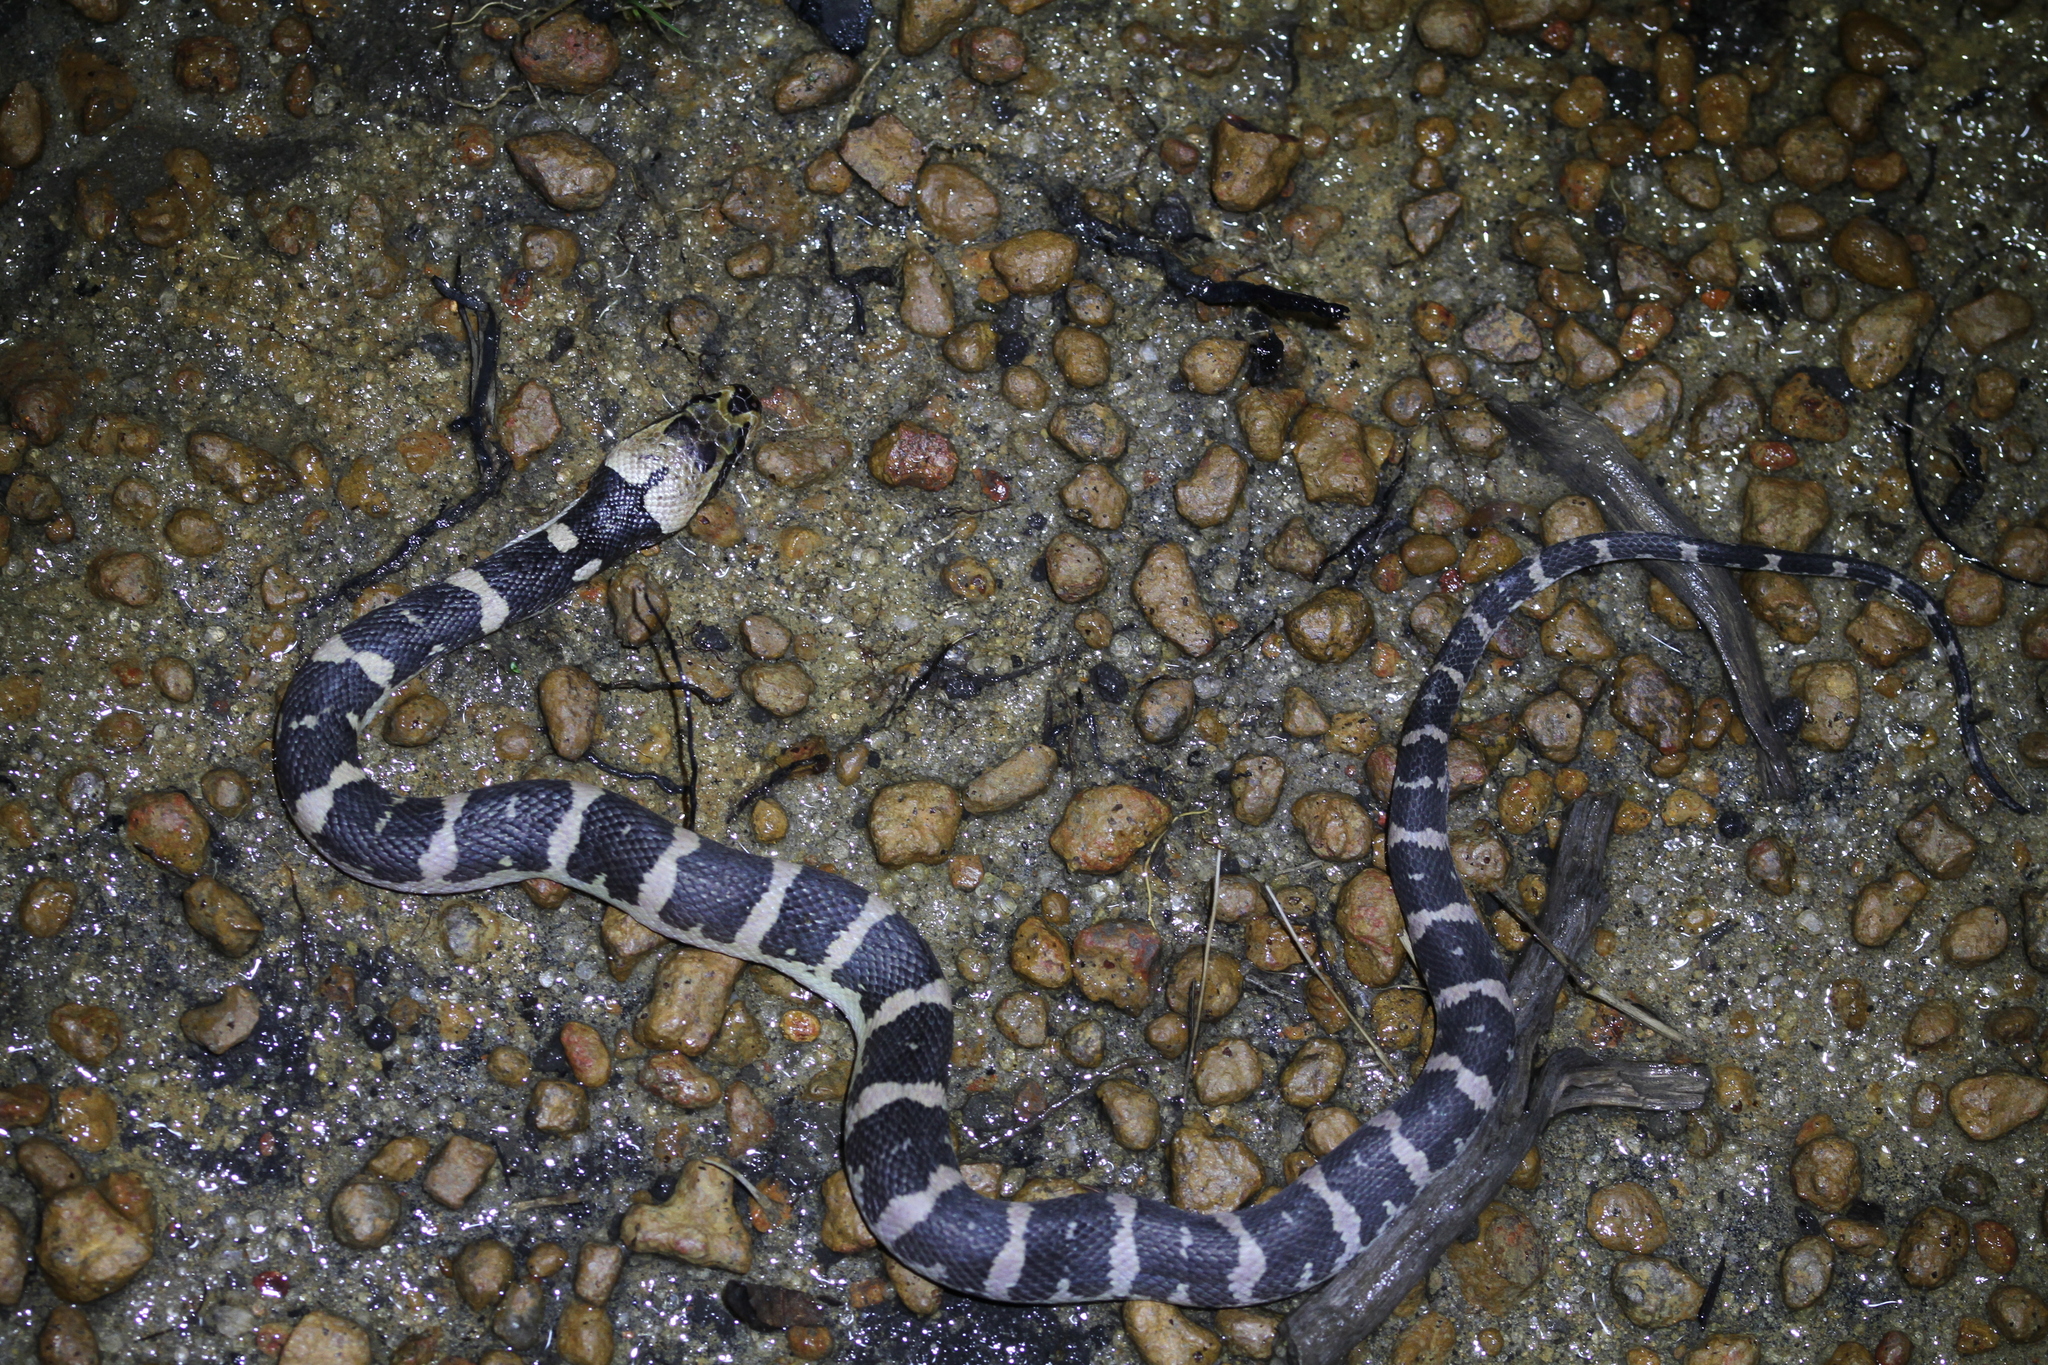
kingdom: Animalia
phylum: Chordata
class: Squamata
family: Homalopsidae
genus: Homalopsis
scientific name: Homalopsis buccata
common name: Masked water snake
